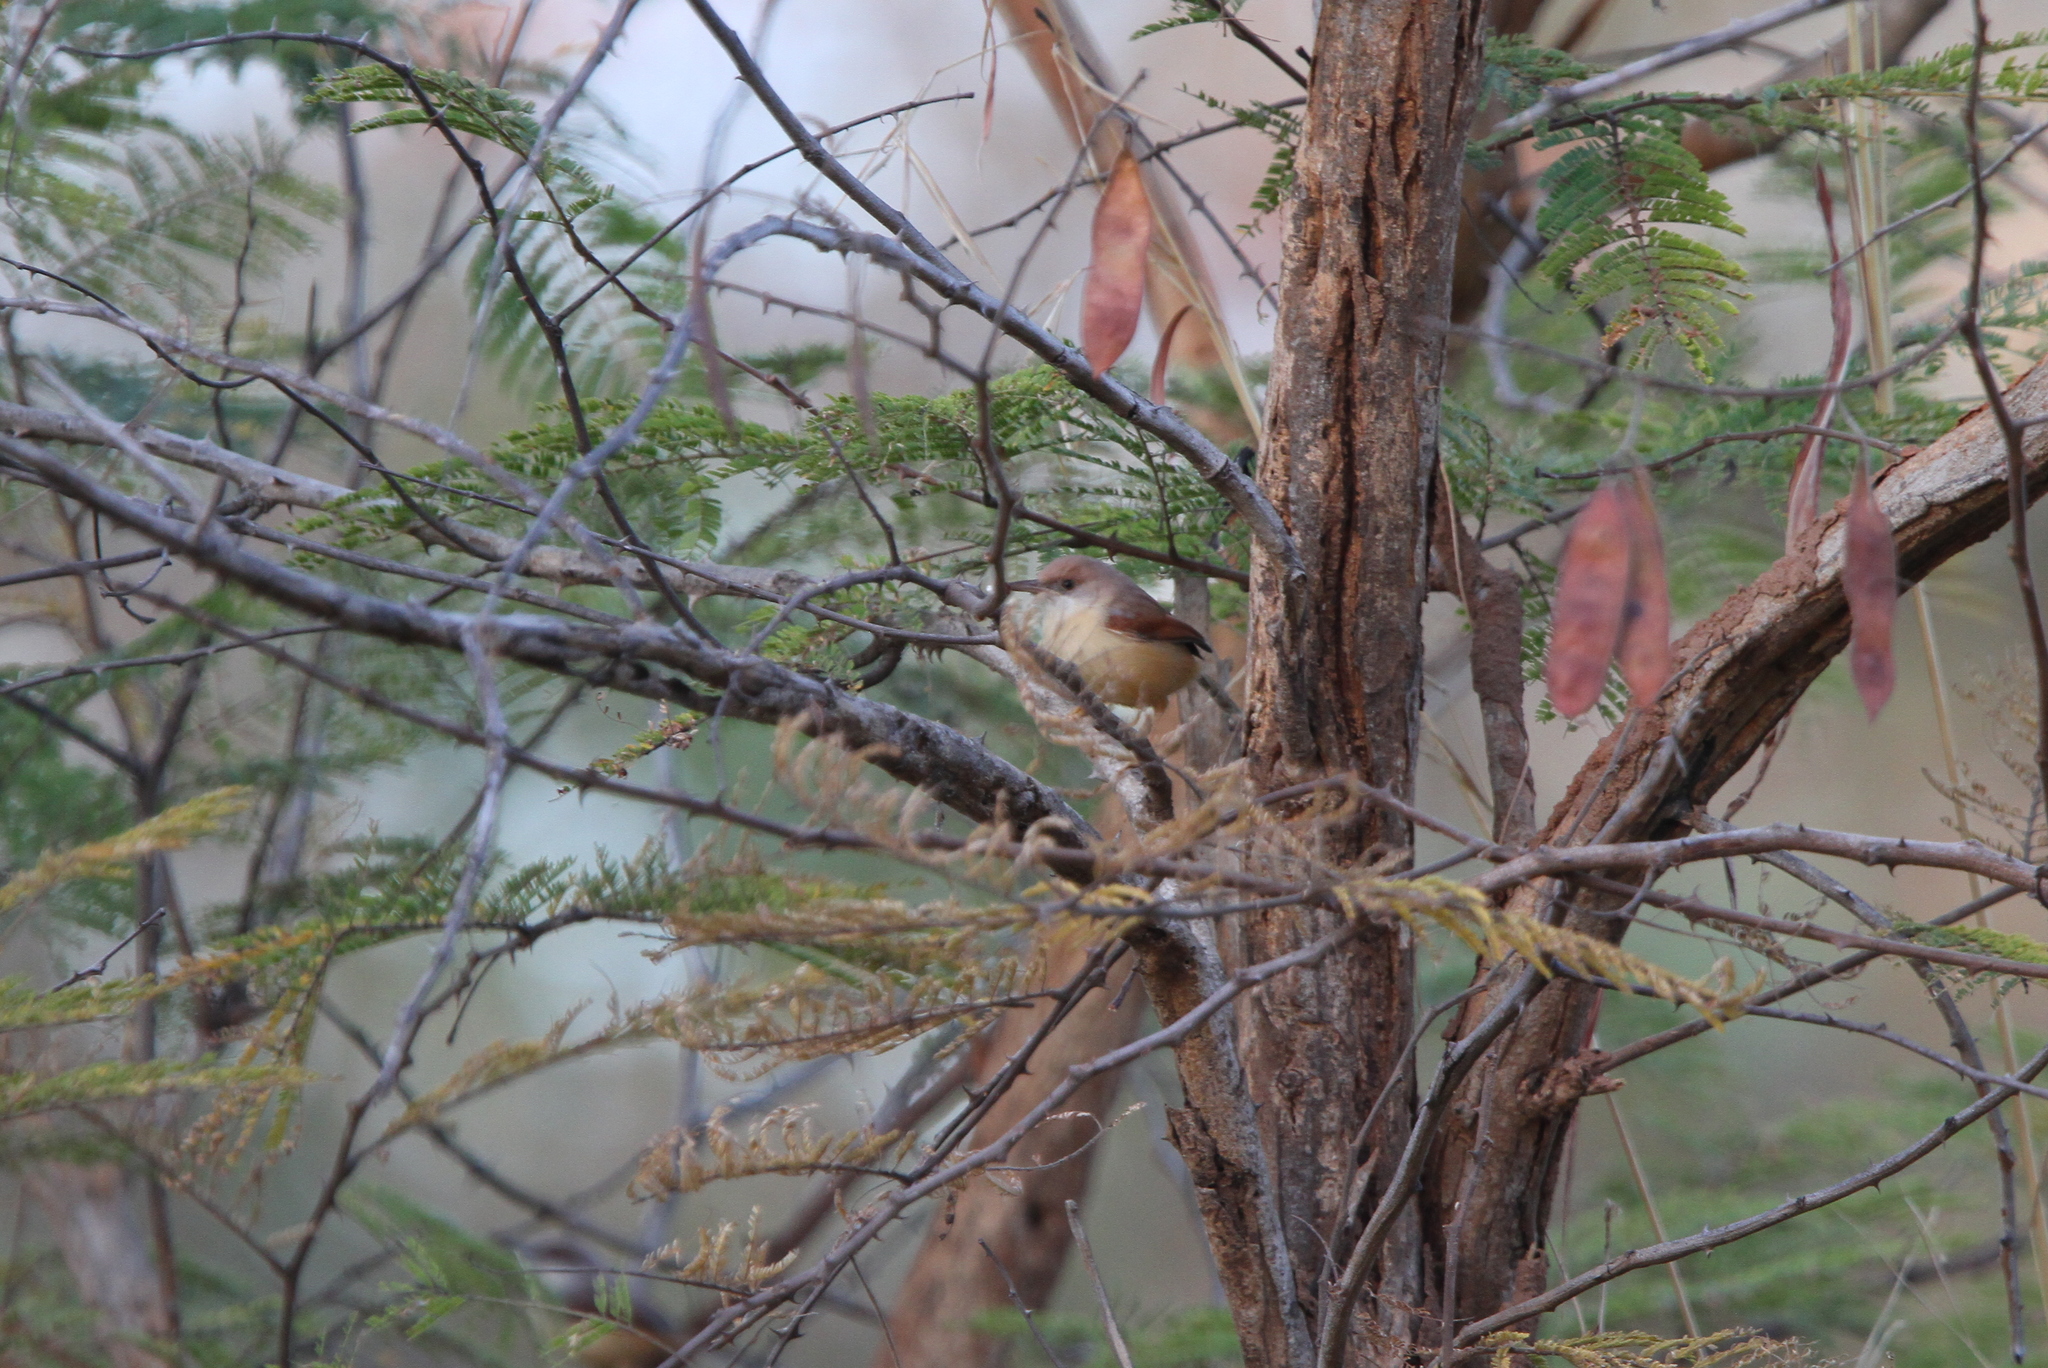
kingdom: Animalia
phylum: Chordata
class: Aves
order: Passeriformes
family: Cisticolidae
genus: Heliolais
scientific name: Heliolais erythropterus
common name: Red-winged warbler
